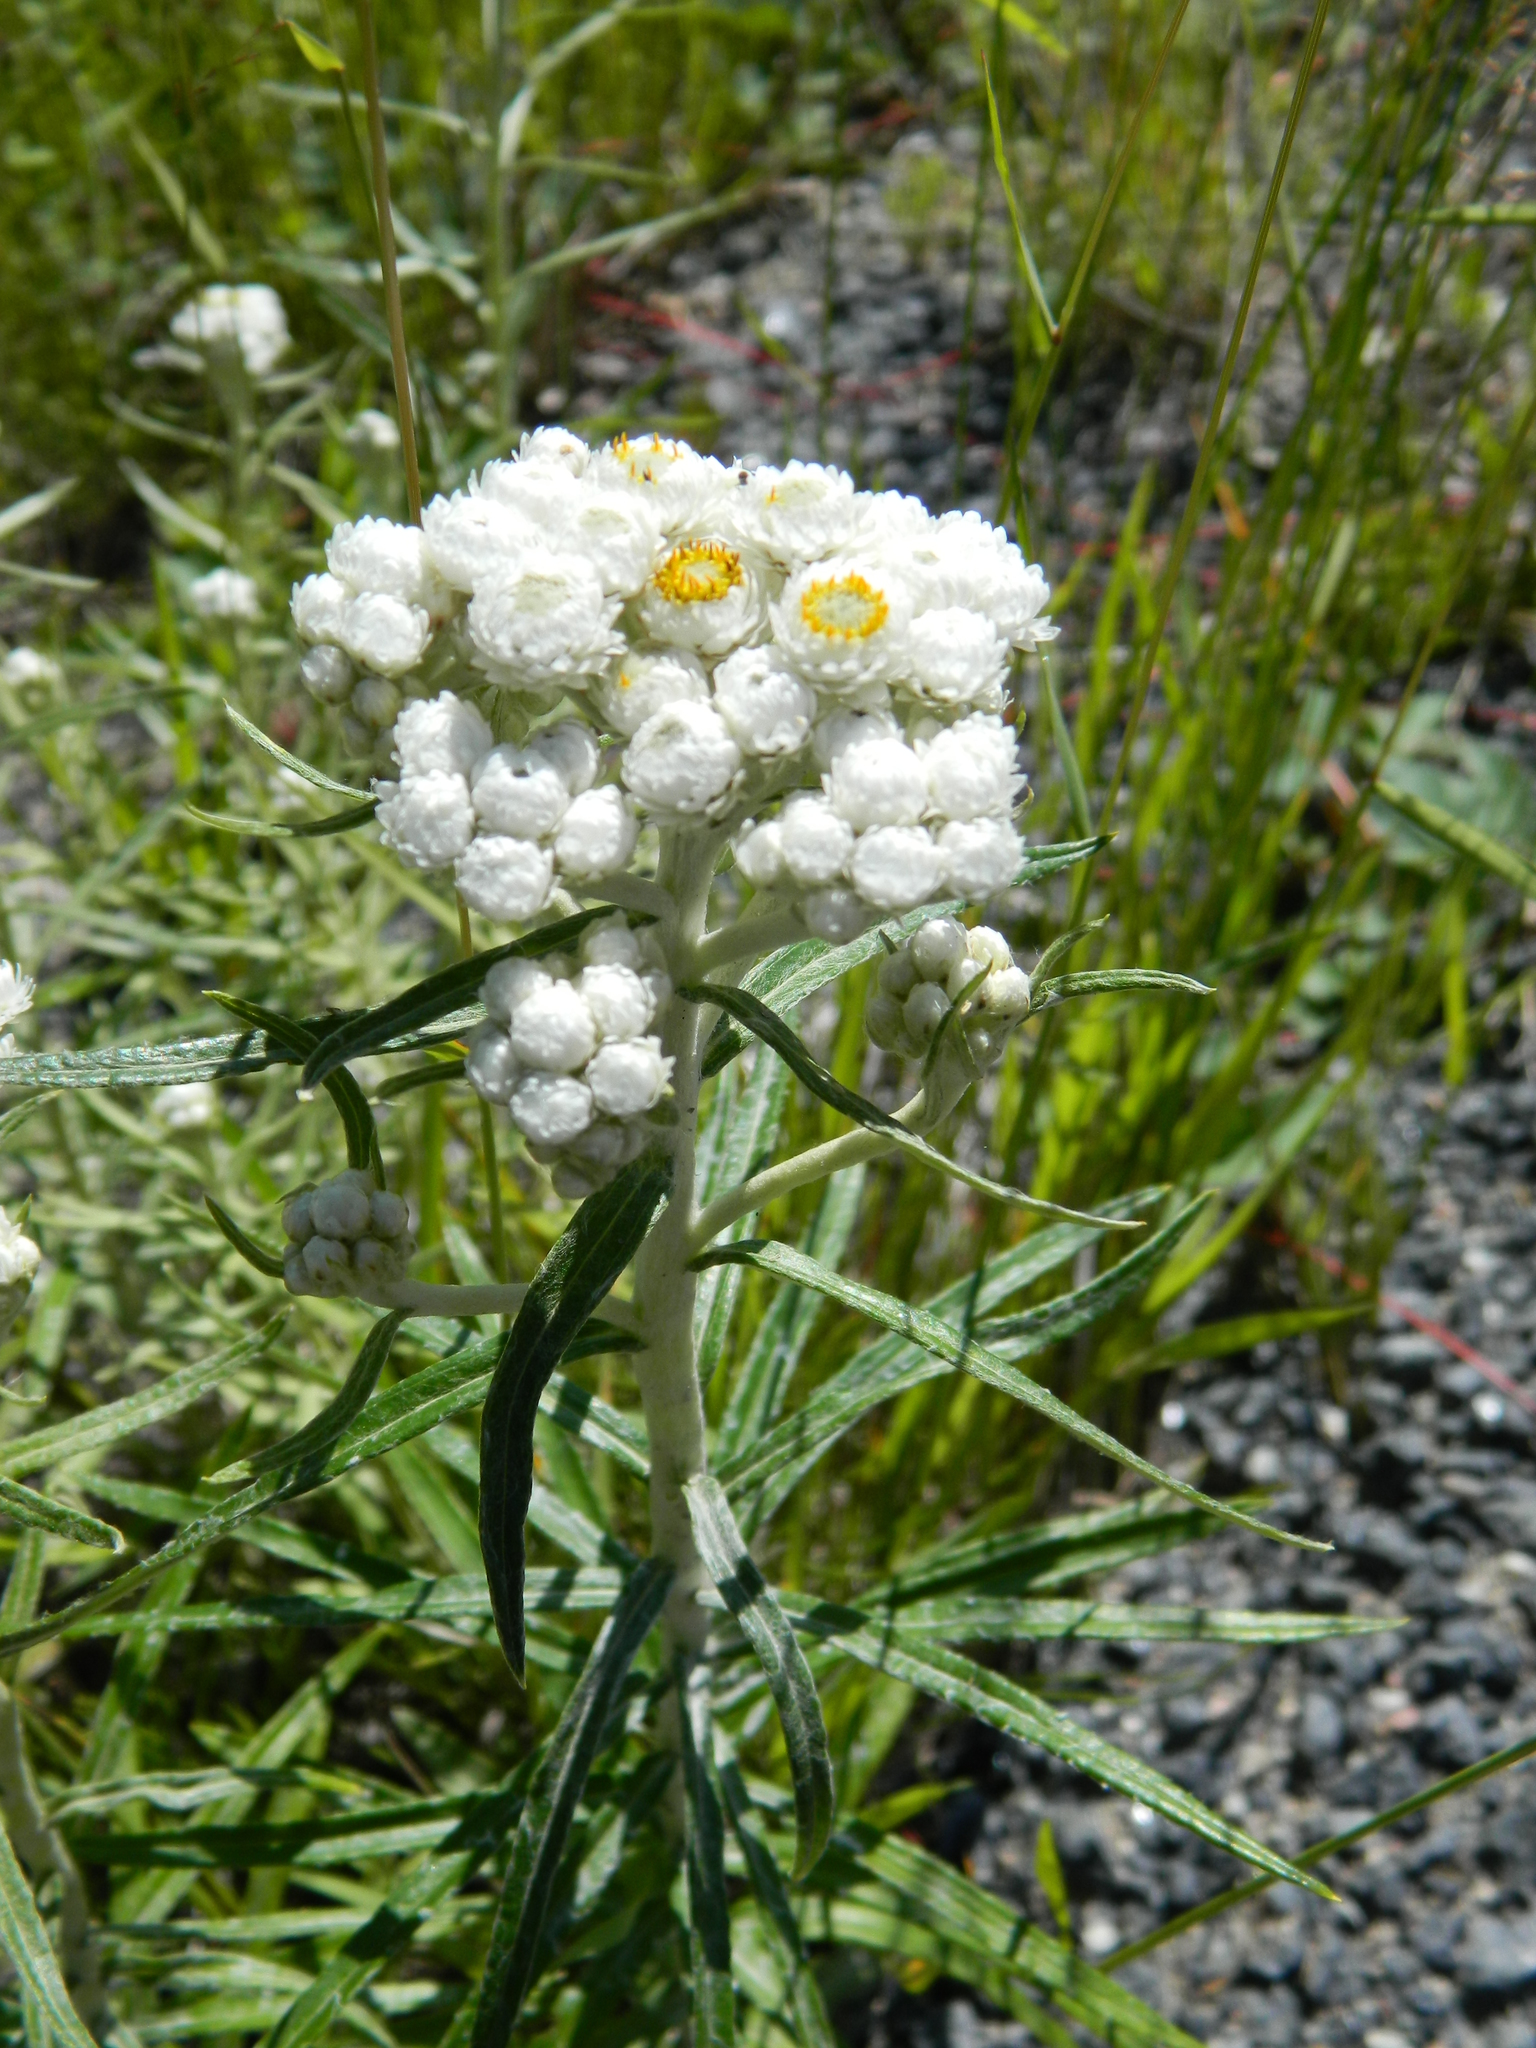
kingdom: Plantae
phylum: Tracheophyta
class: Magnoliopsida
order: Asterales
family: Asteraceae
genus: Anaphalis
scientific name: Anaphalis margaritacea
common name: Pearly everlasting
